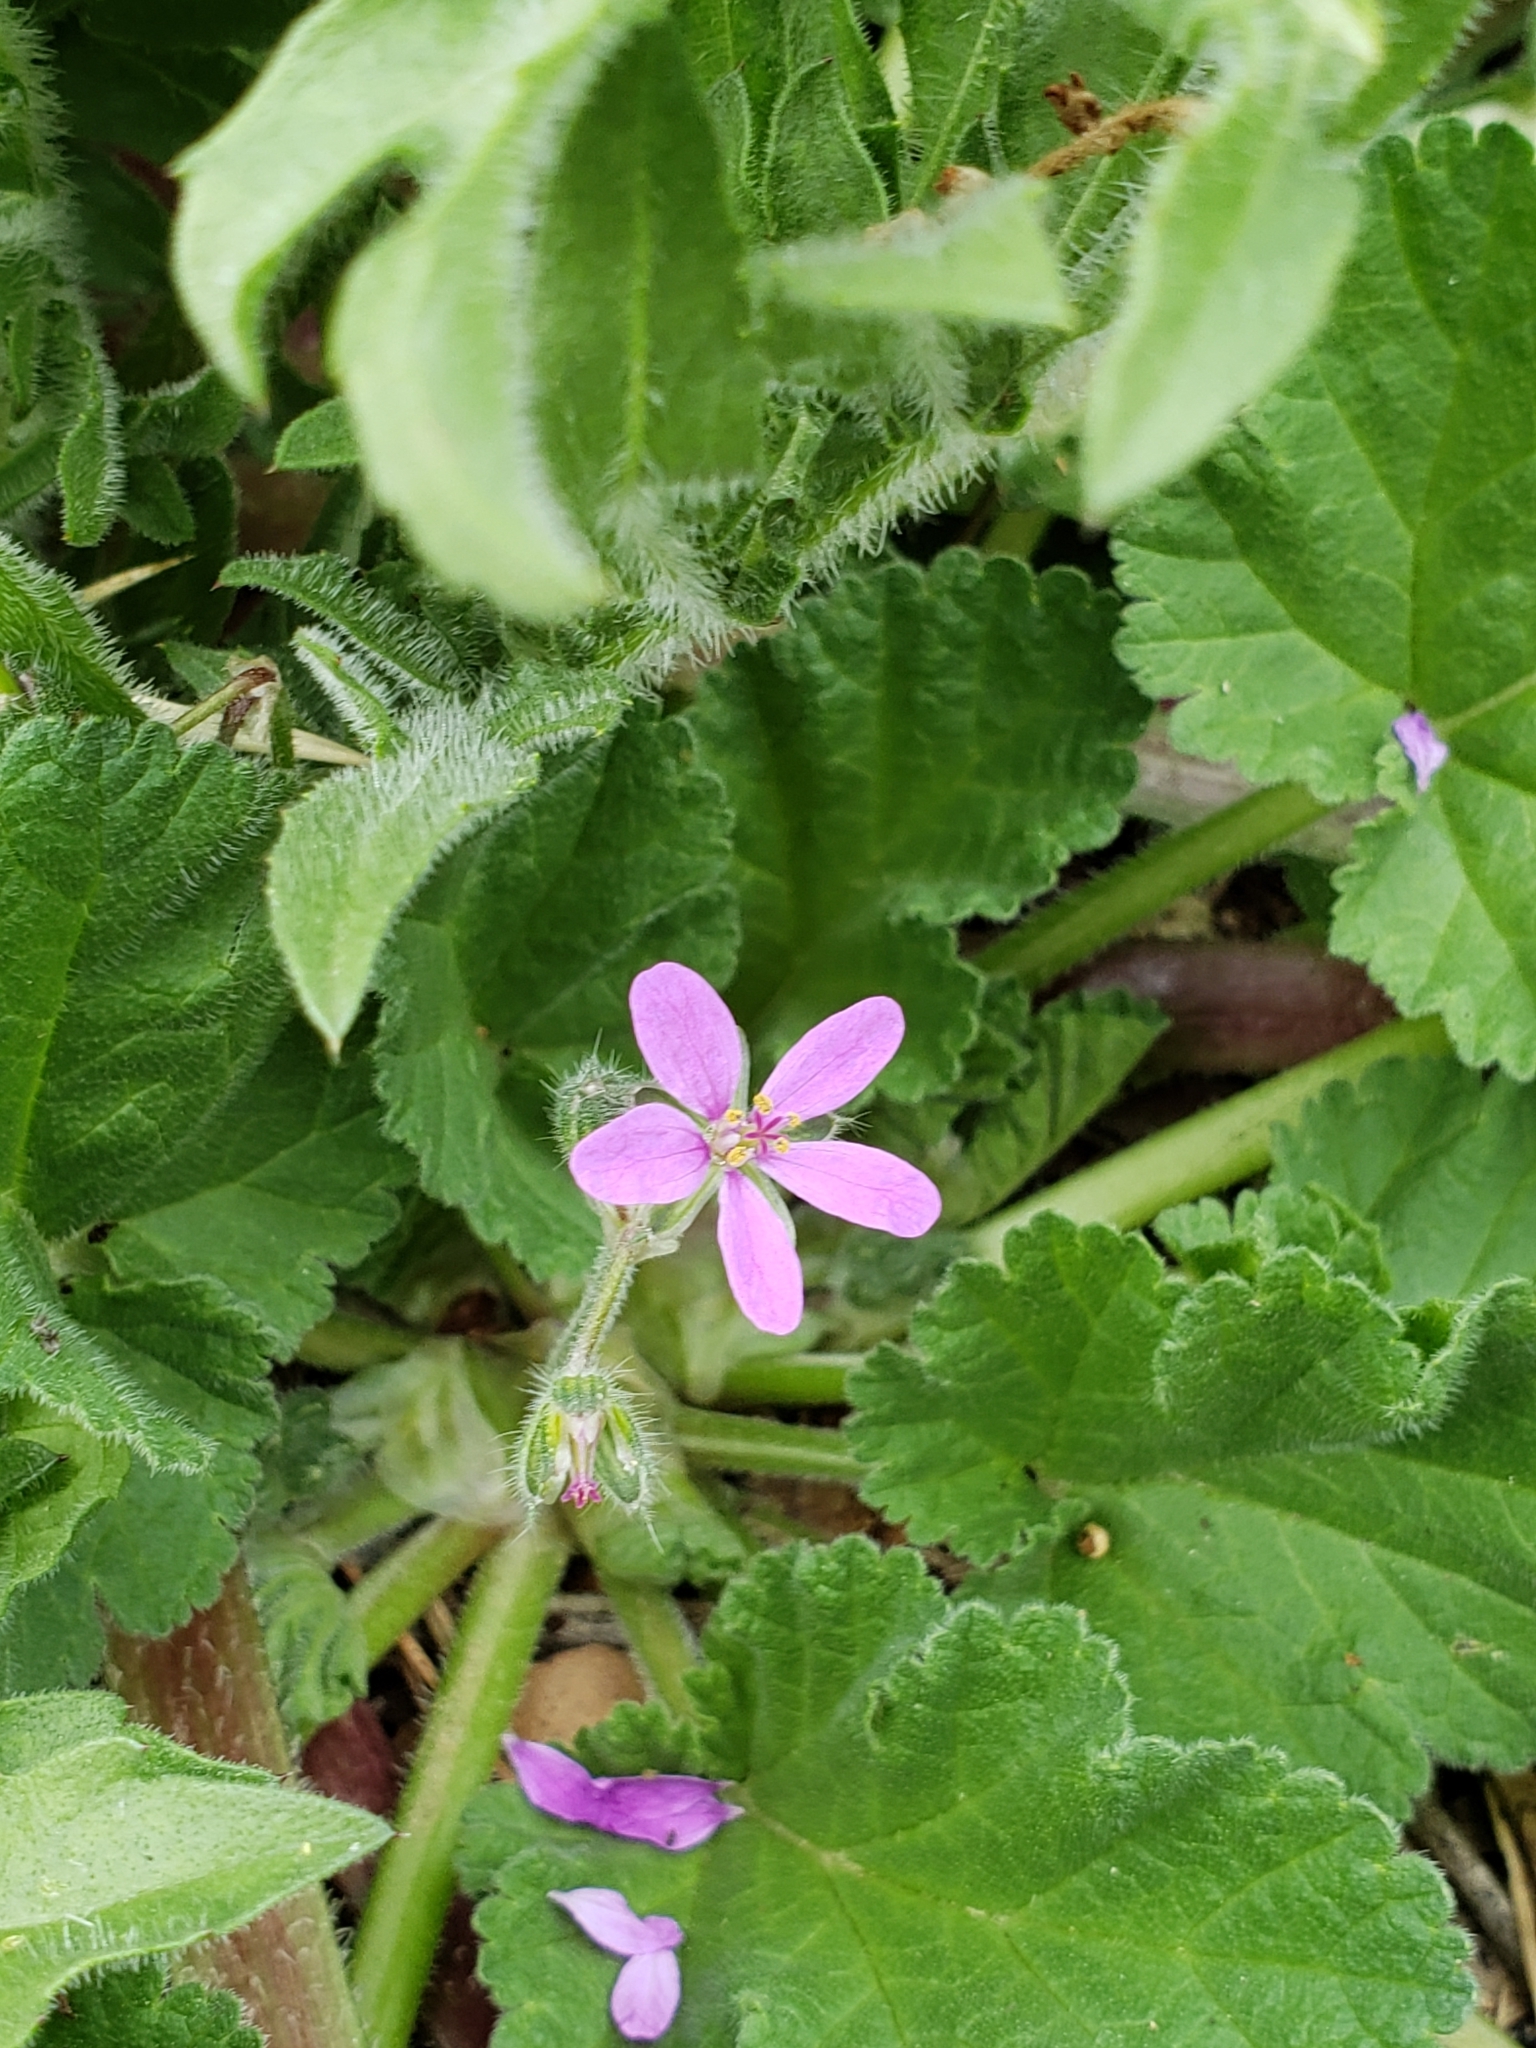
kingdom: Plantae
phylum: Tracheophyta
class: Magnoliopsida
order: Geraniales
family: Geraniaceae
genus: Erodium
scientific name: Erodium malacoides
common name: Soft stork's-bill
